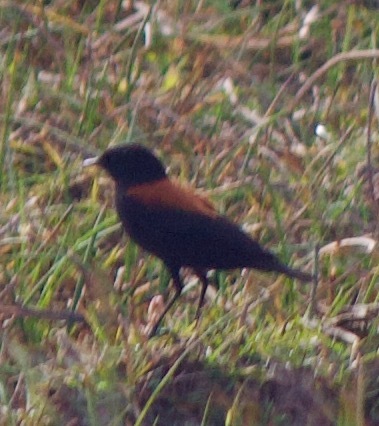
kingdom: Animalia
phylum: Chordata
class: Aves
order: Passeriformes
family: Tyrannidae
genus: Lessonia
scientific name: Lessonia rufa
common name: Austral negrito
